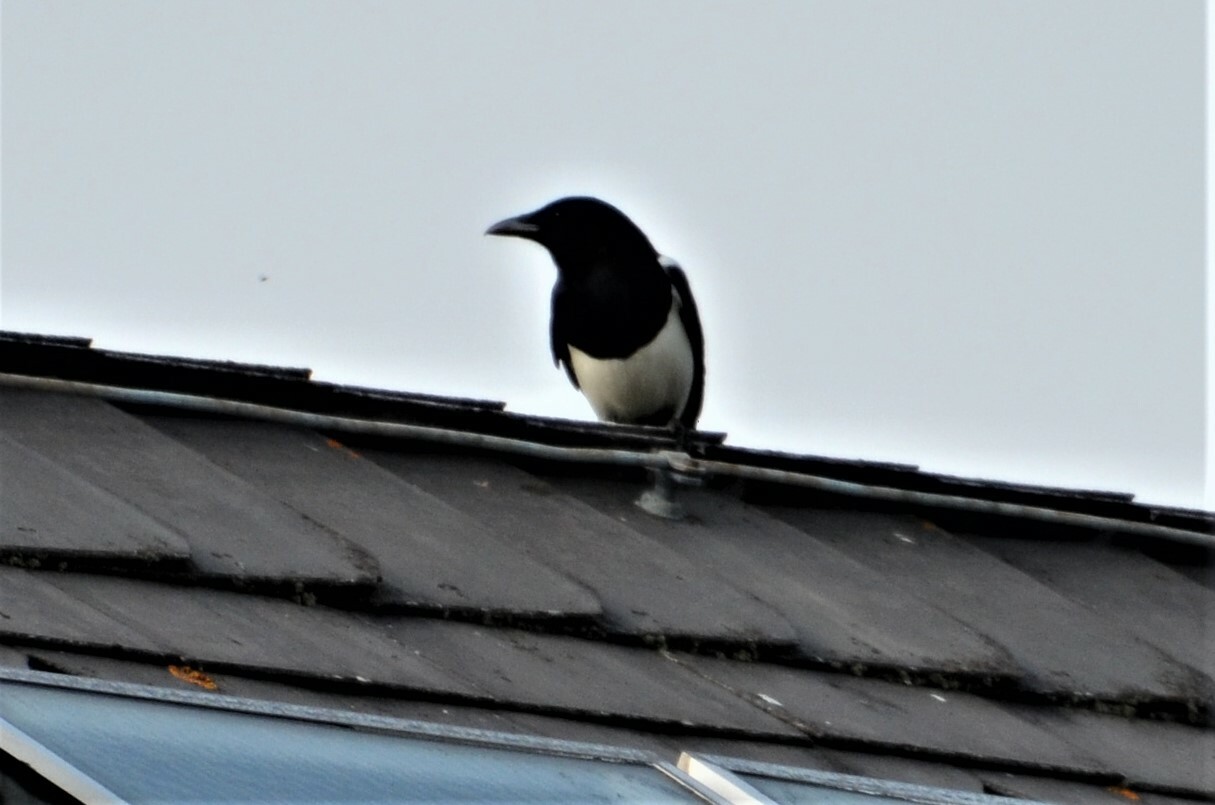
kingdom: Animalia
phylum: Chordata
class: Aves
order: Passeriformes
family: Corvidae
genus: Pica
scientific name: Pica pica
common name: Eurasian magpie
